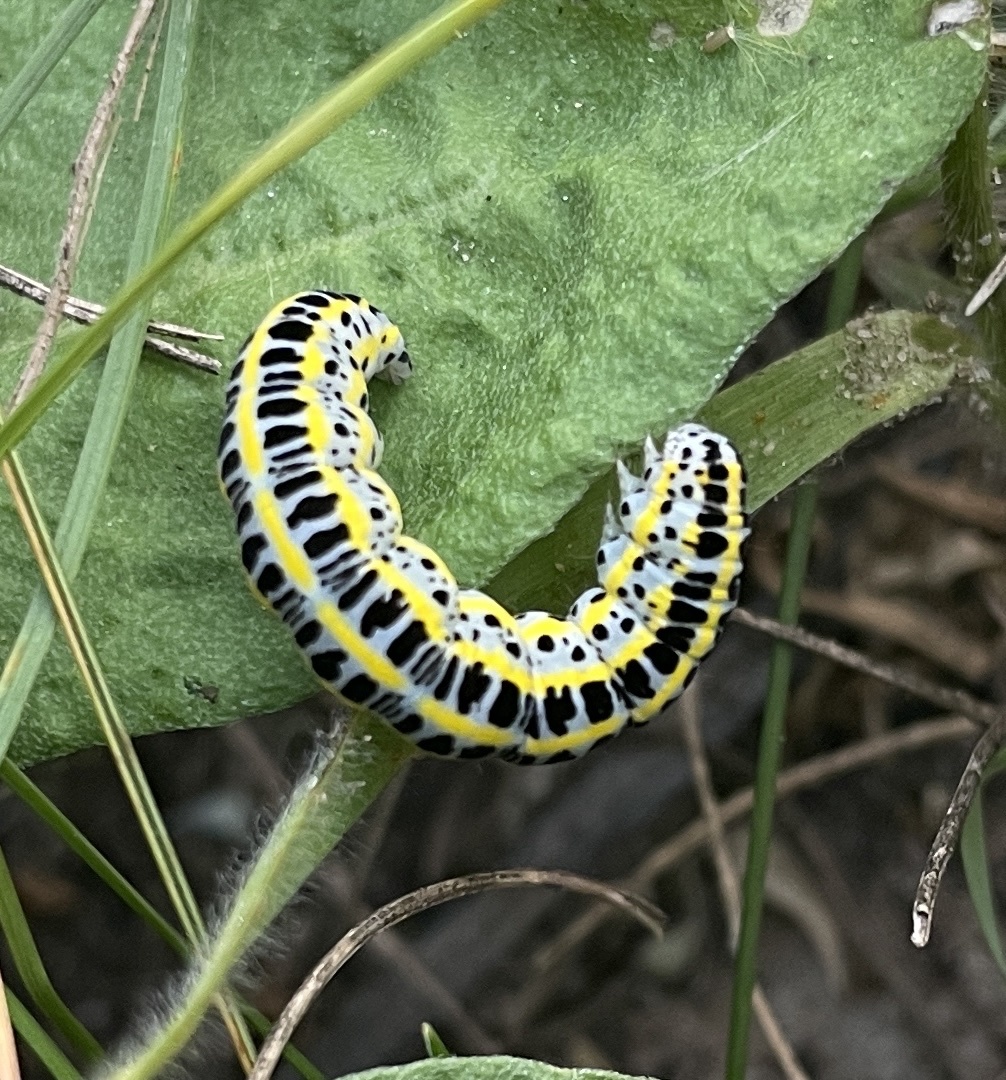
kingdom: Animalia
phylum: Arthropoda
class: Insecta
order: Lepidoptera
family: Noctuidae
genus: Calophasia
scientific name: Calophasia lunula
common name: Toadflax brocade
